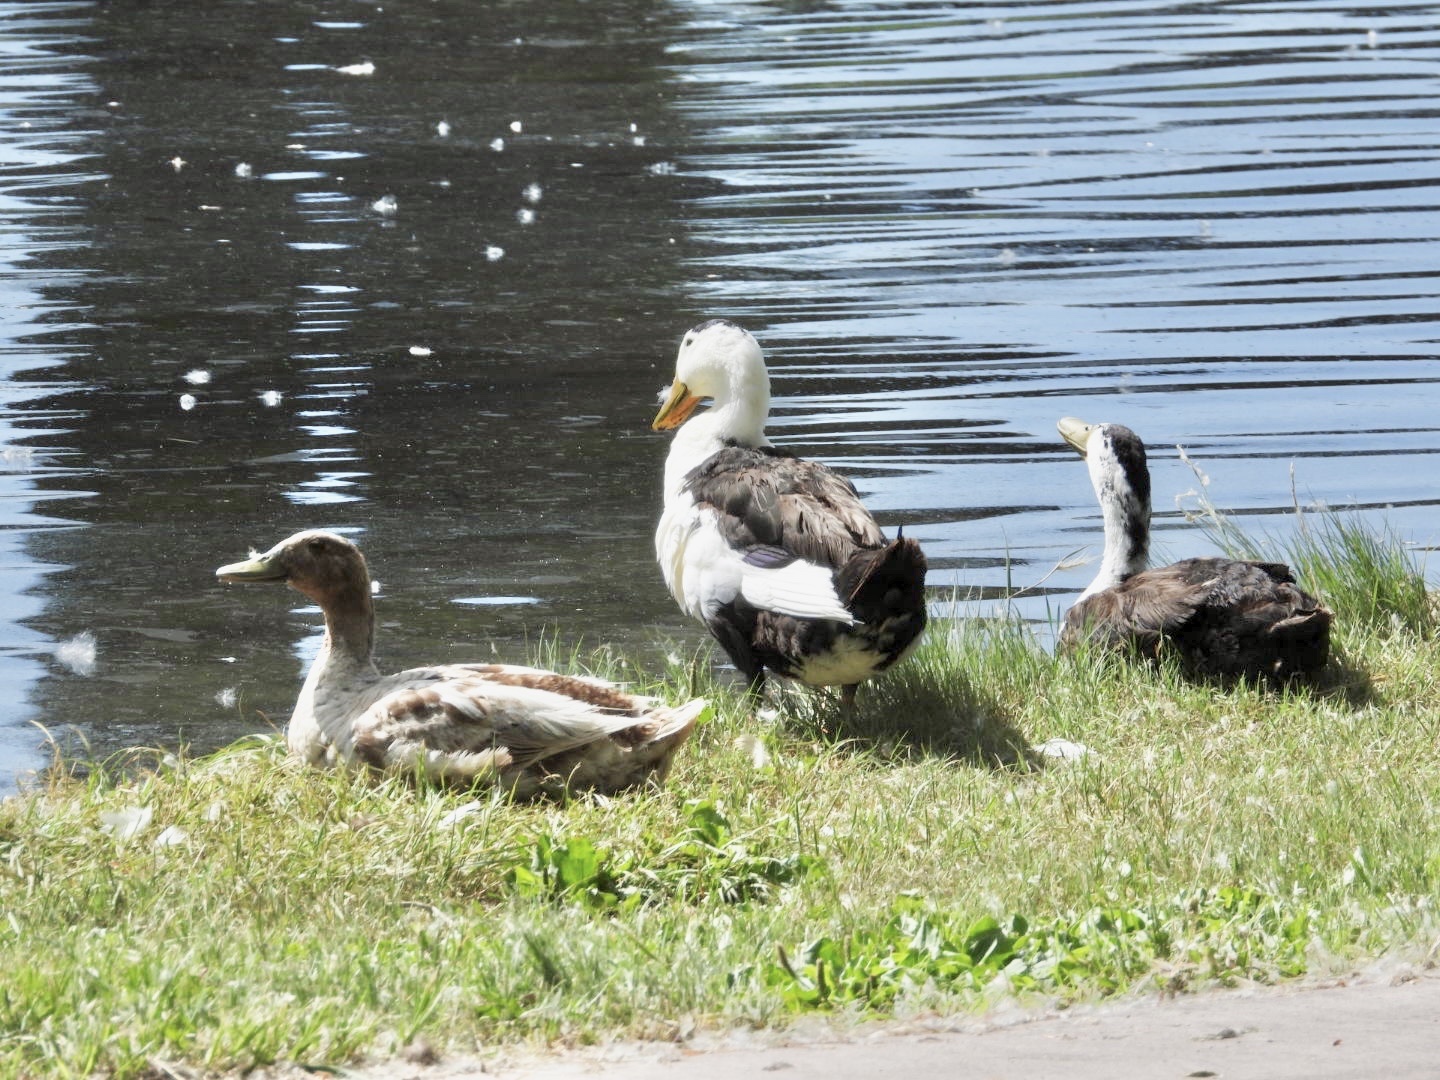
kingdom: Animalia
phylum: Chordata
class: Aves
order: Anseriformes
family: Anatidae
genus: Anas
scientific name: Anas platyrhynchos
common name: Mallard
